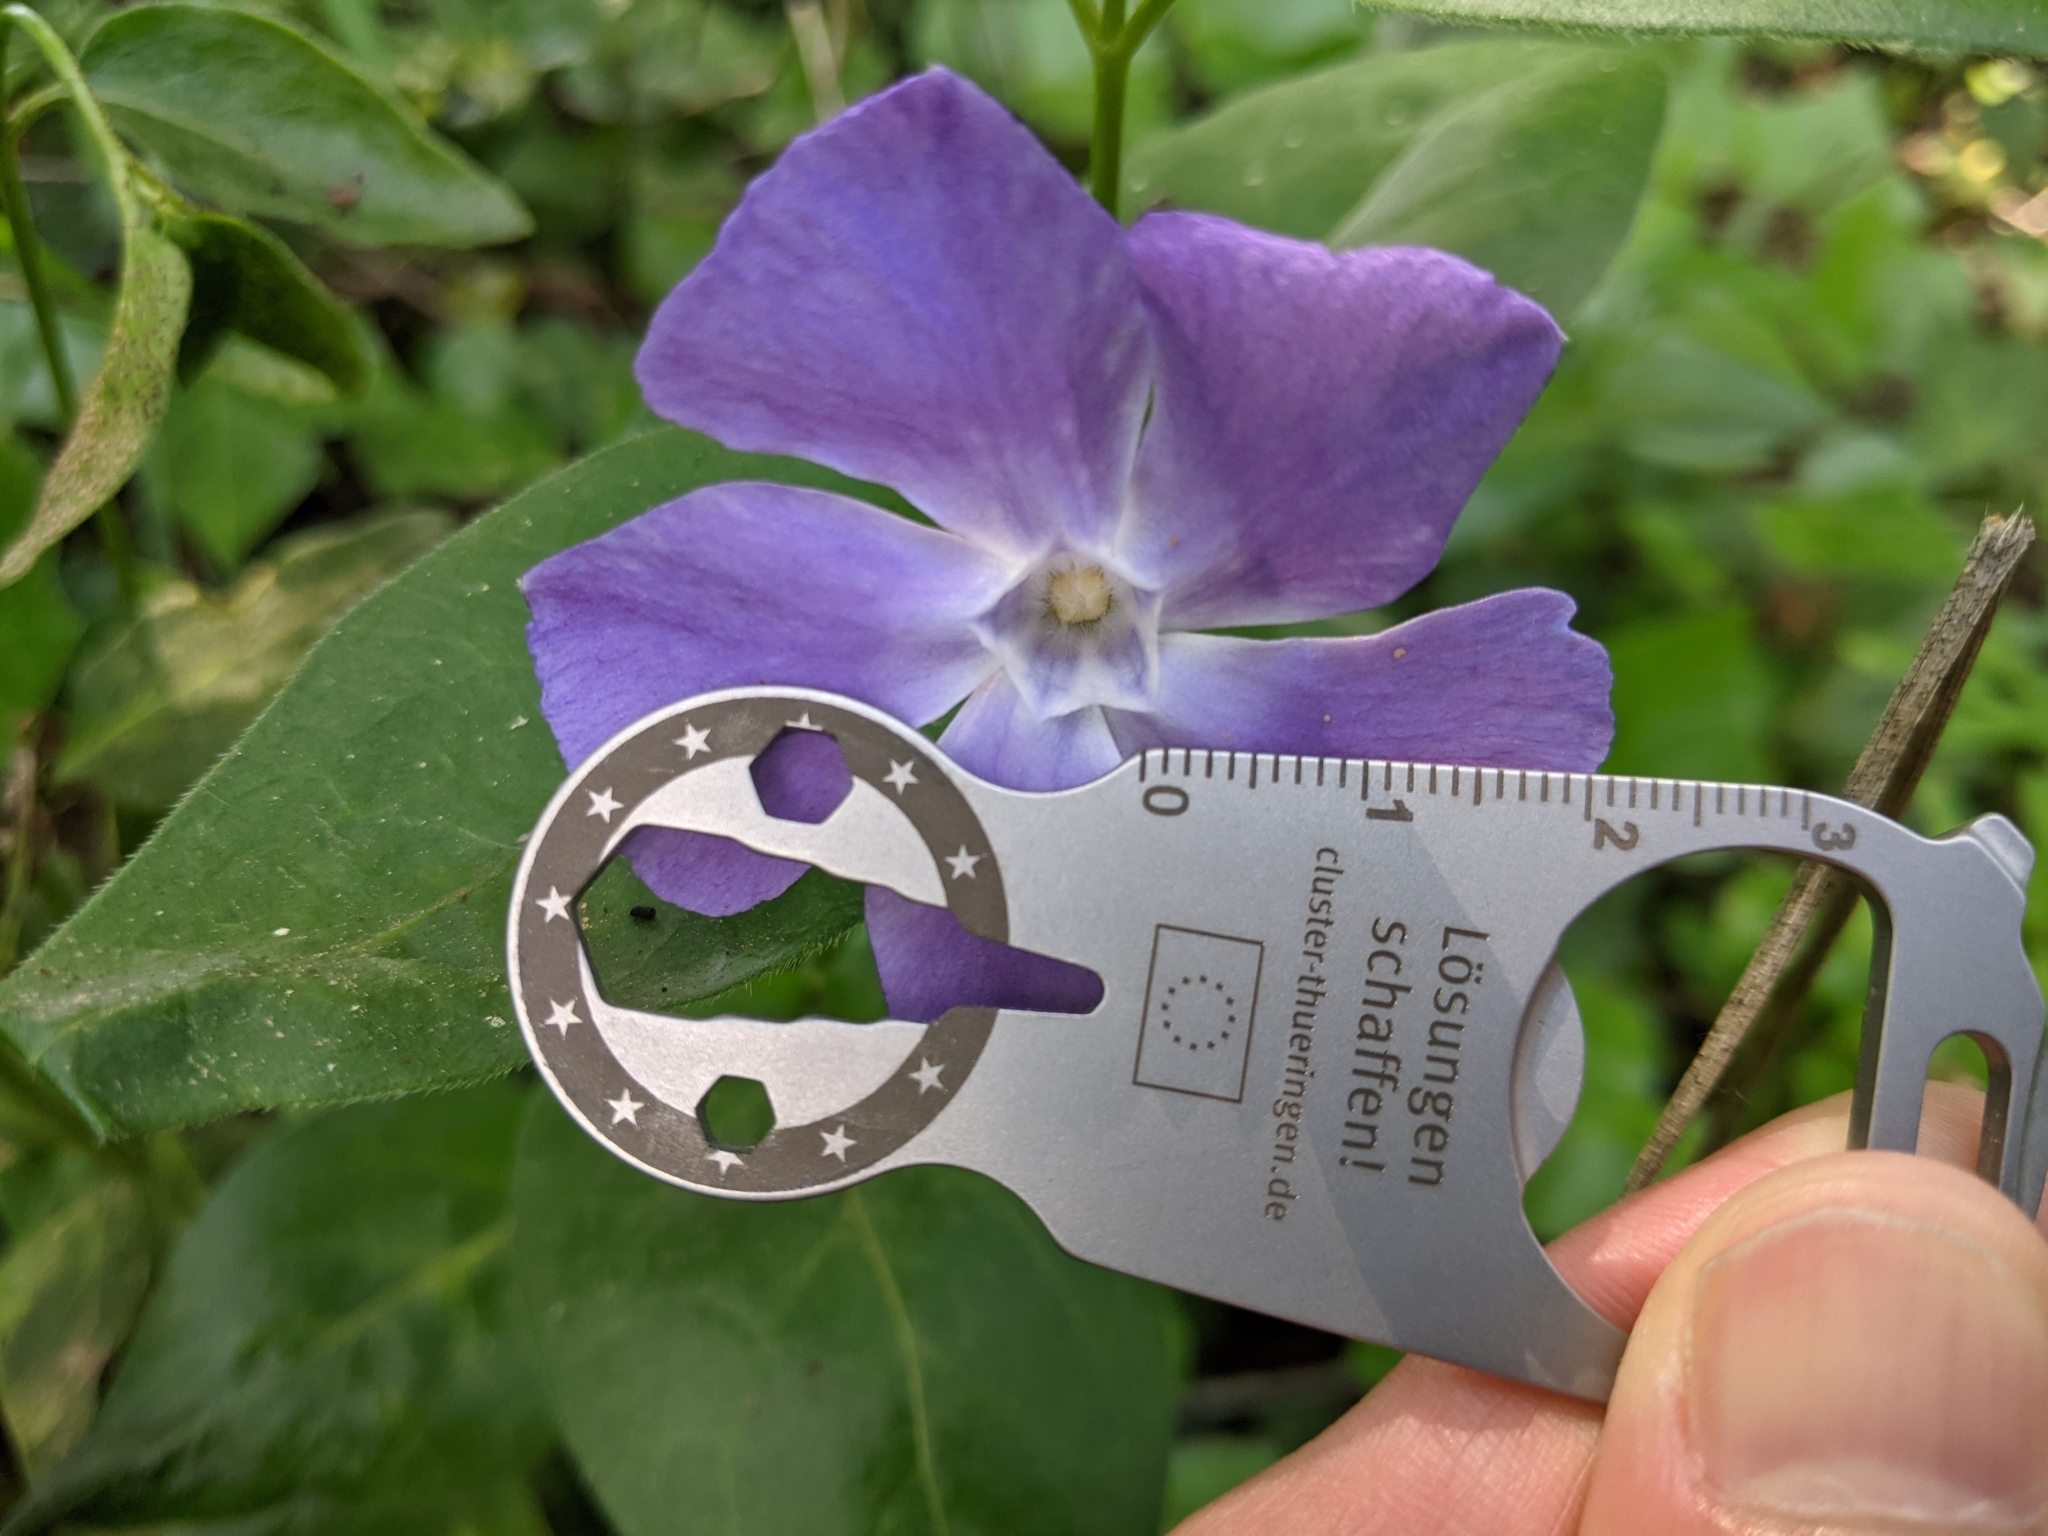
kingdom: Plantae
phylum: Tracheophyta
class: Magnoliopsida
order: Gentianales
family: Apocynaceae
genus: Vinca
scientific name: Vinca major
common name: Greater periwinkle
